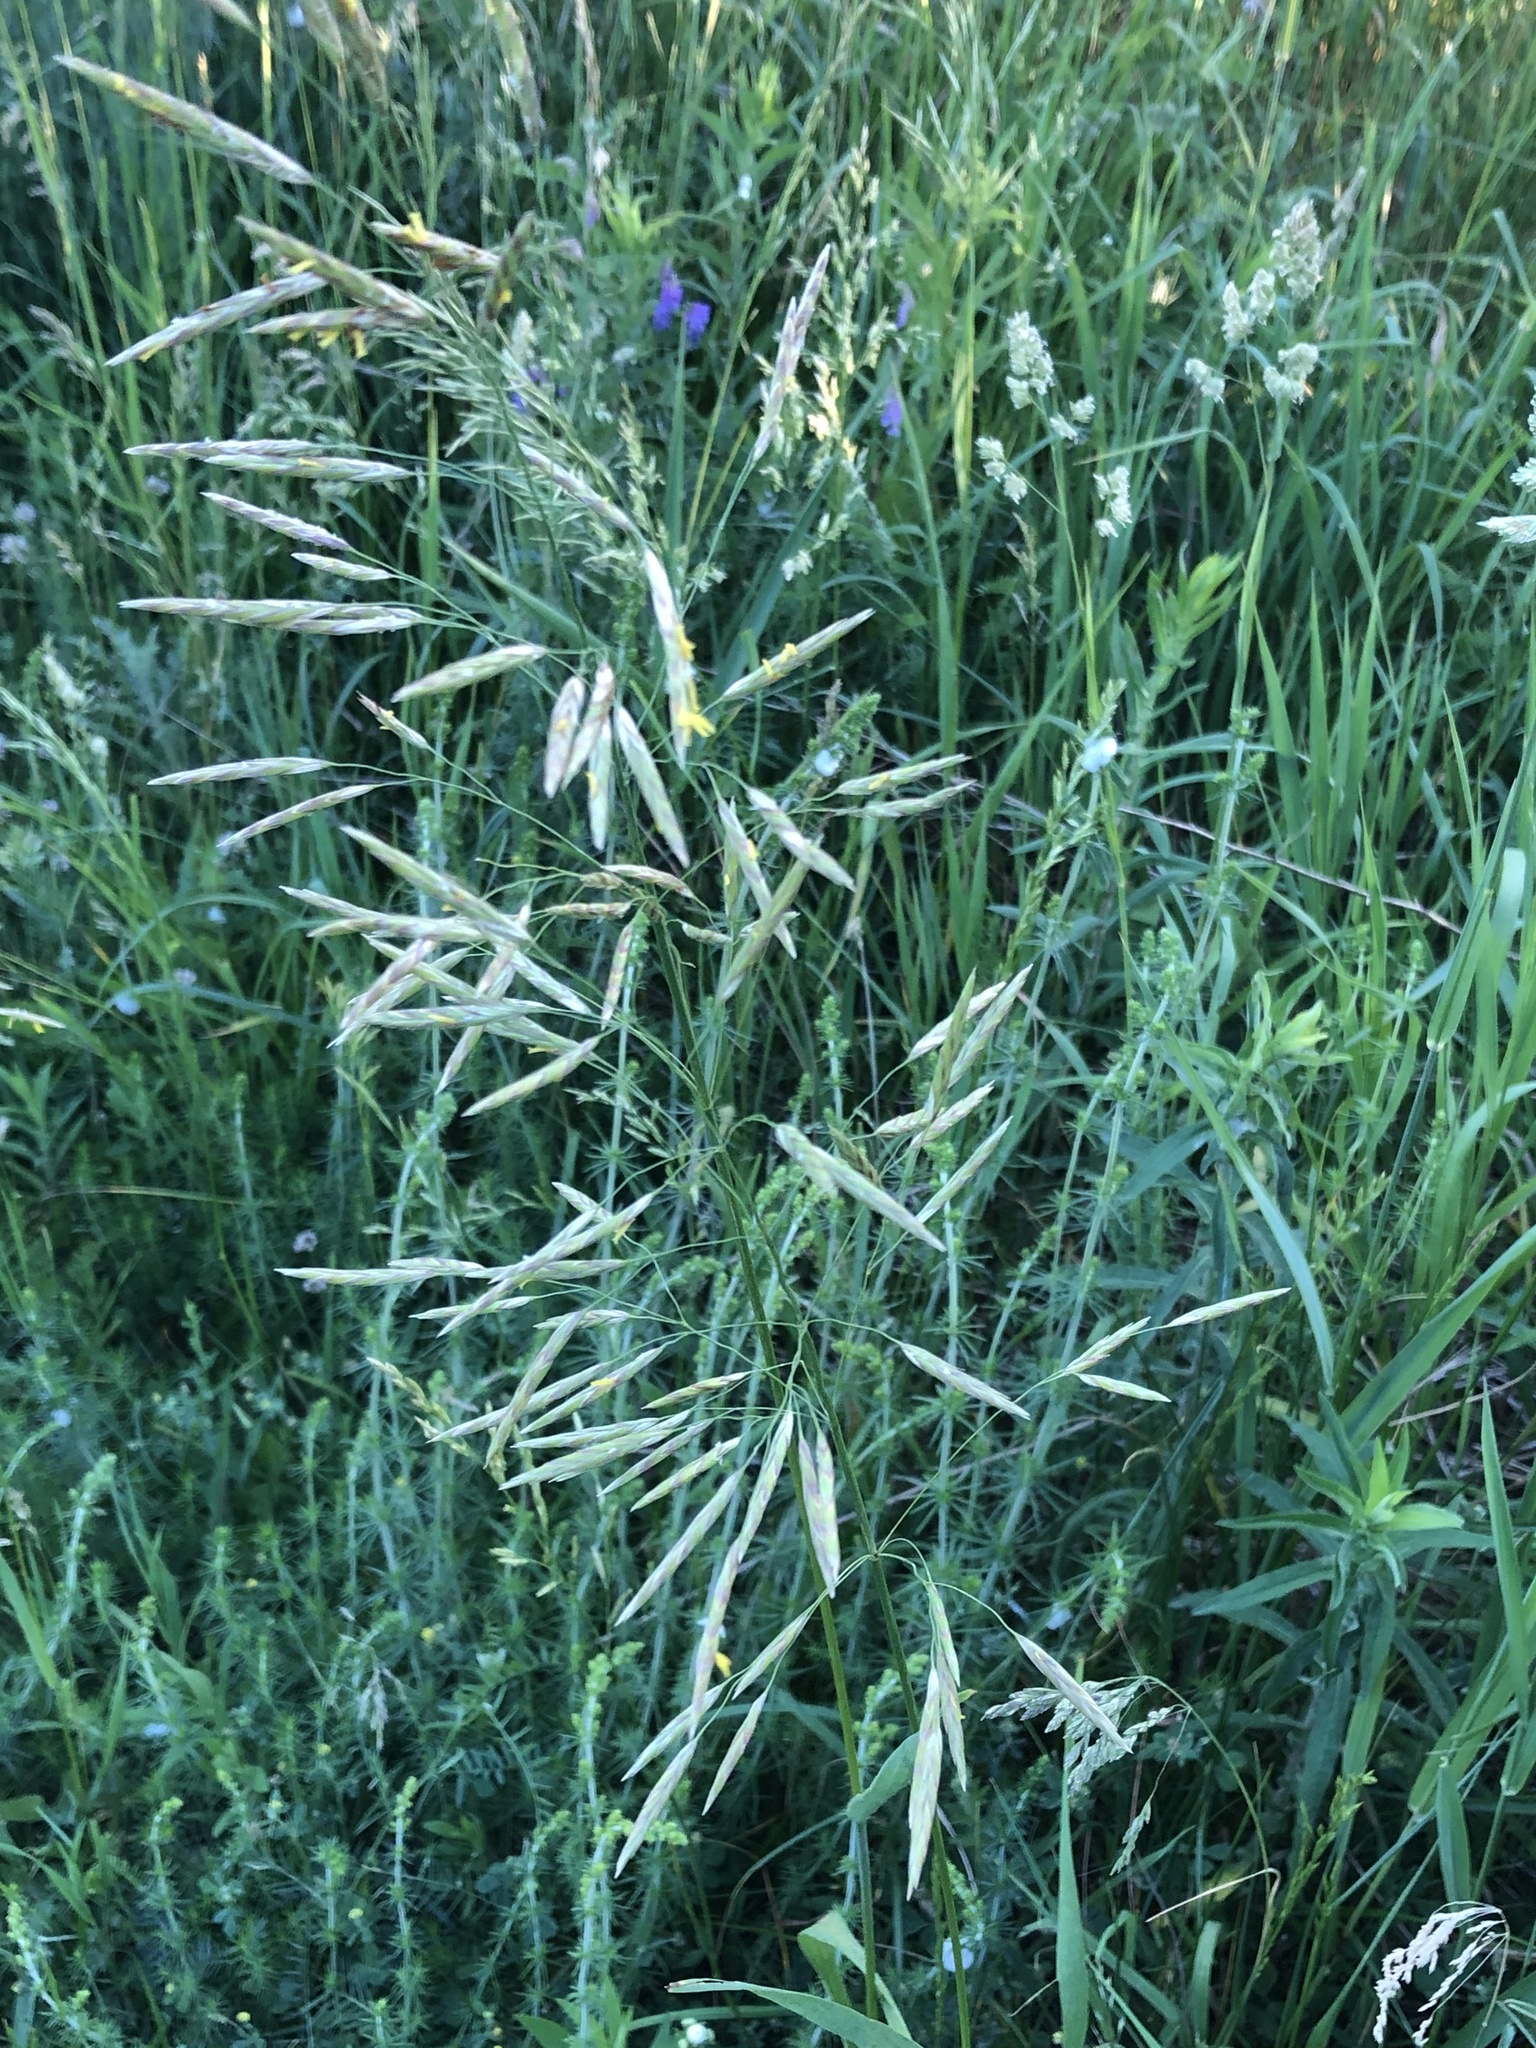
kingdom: Plantae
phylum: Tracheophyta
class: Liliopsida
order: Poales
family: Poaceae
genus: Bromus
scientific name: Bromus inermis
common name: Smooth brome
